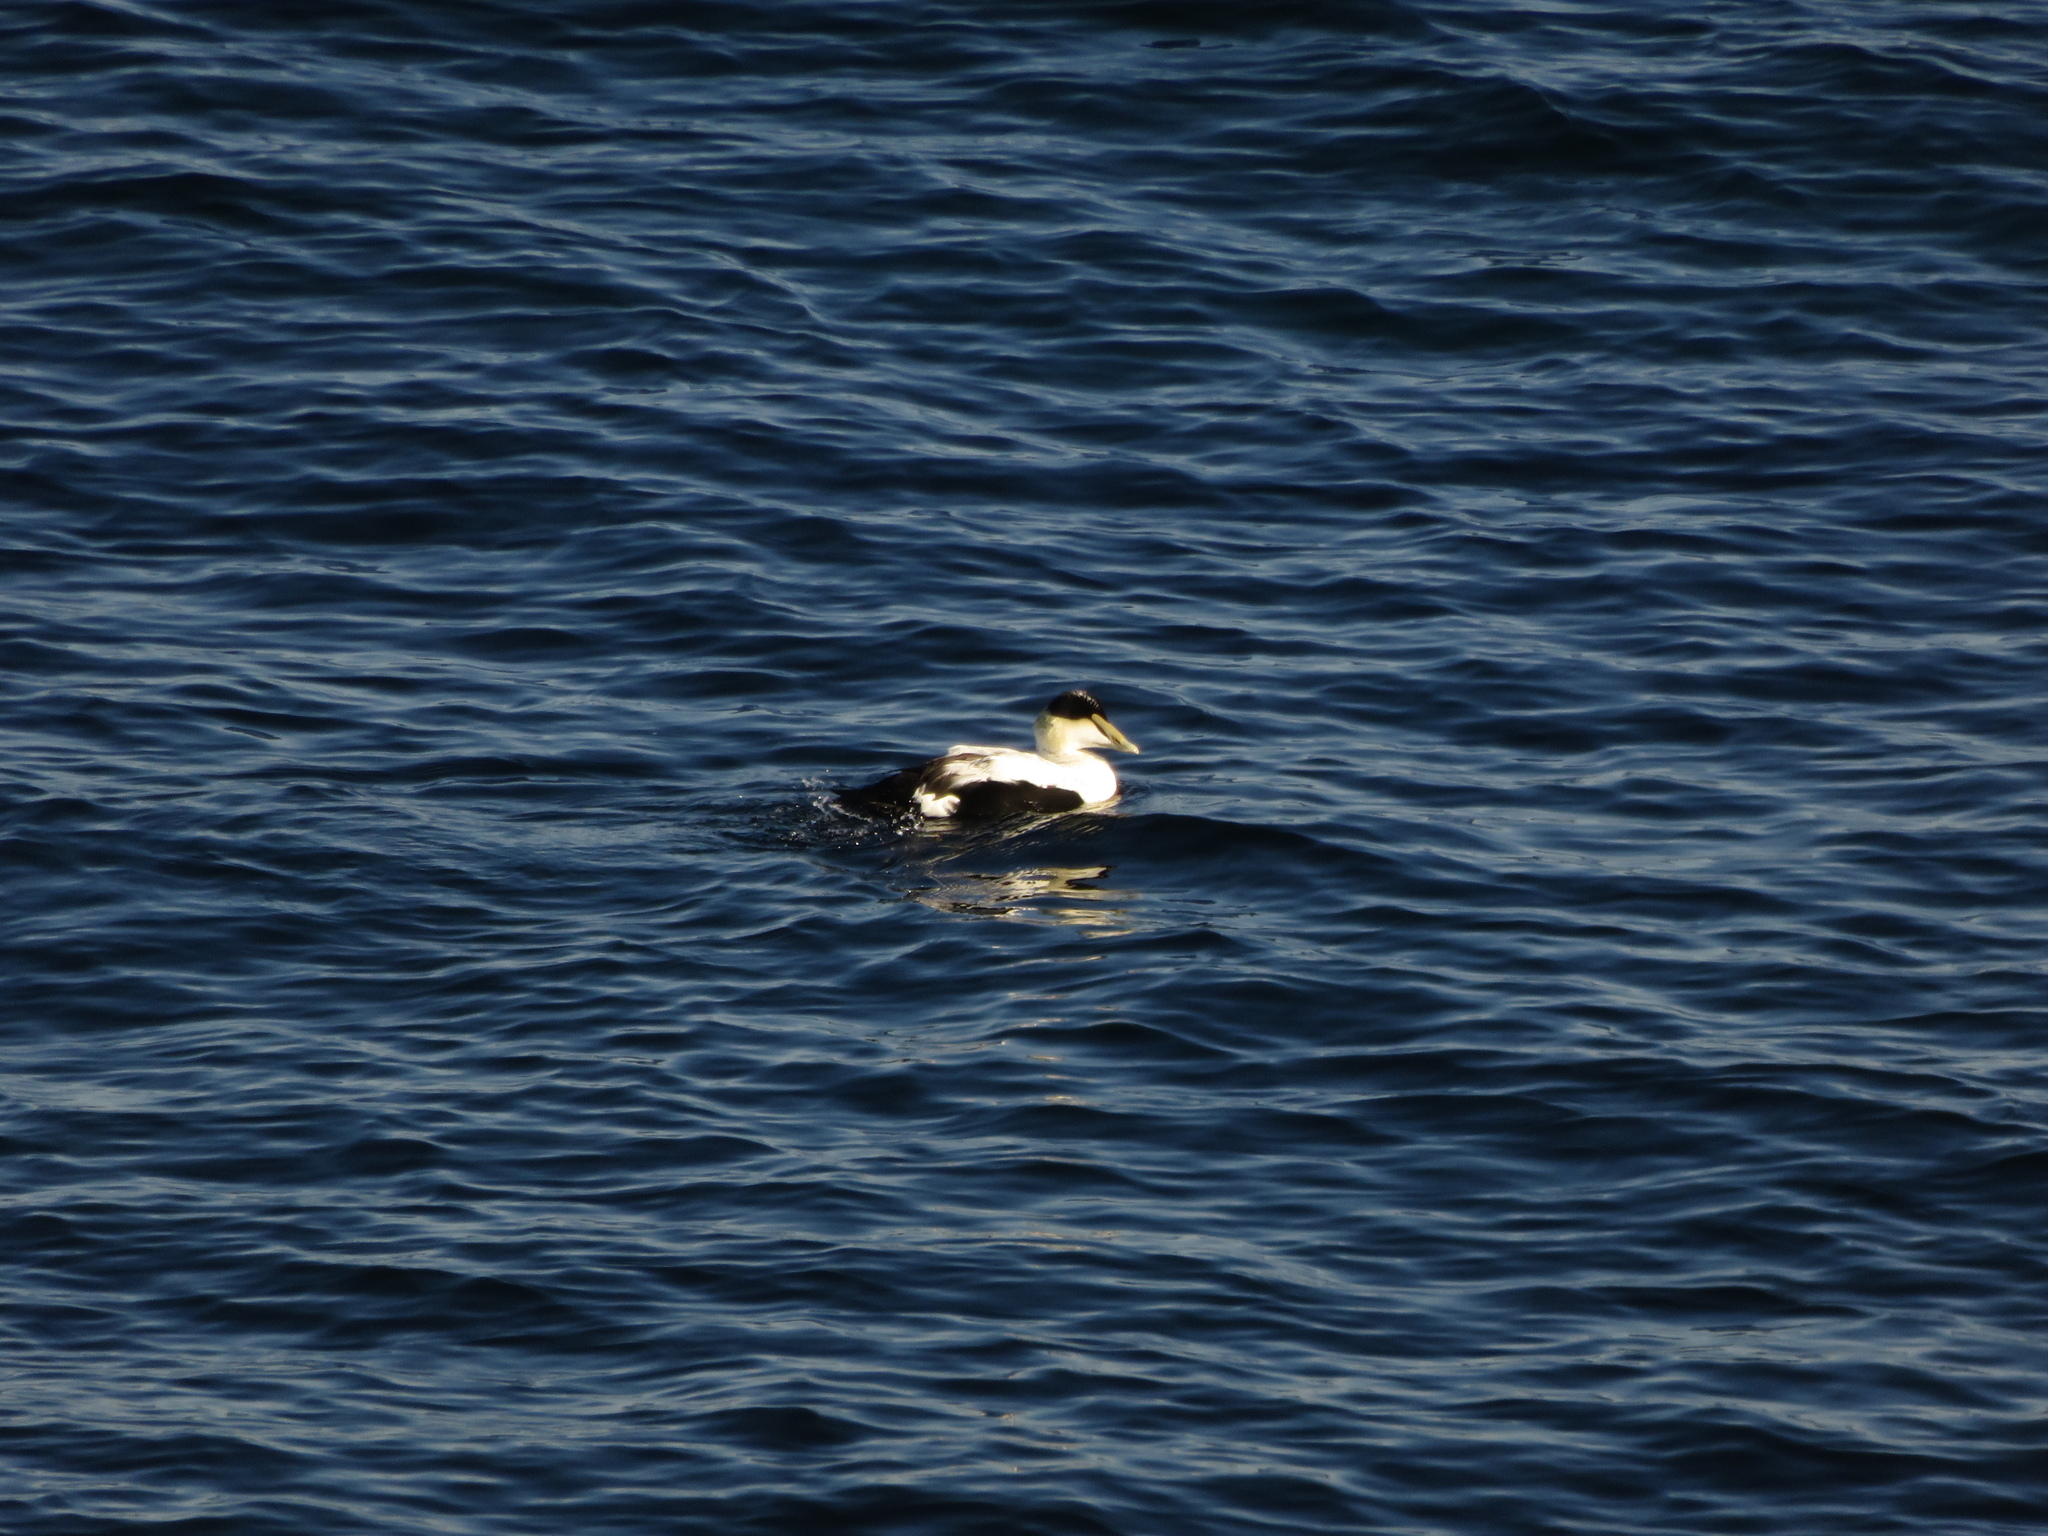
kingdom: Animalia
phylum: Chordata
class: Aves
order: Anseriformes
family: Anatidae
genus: Somateria
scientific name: Somateria mollissima
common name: Common eider
